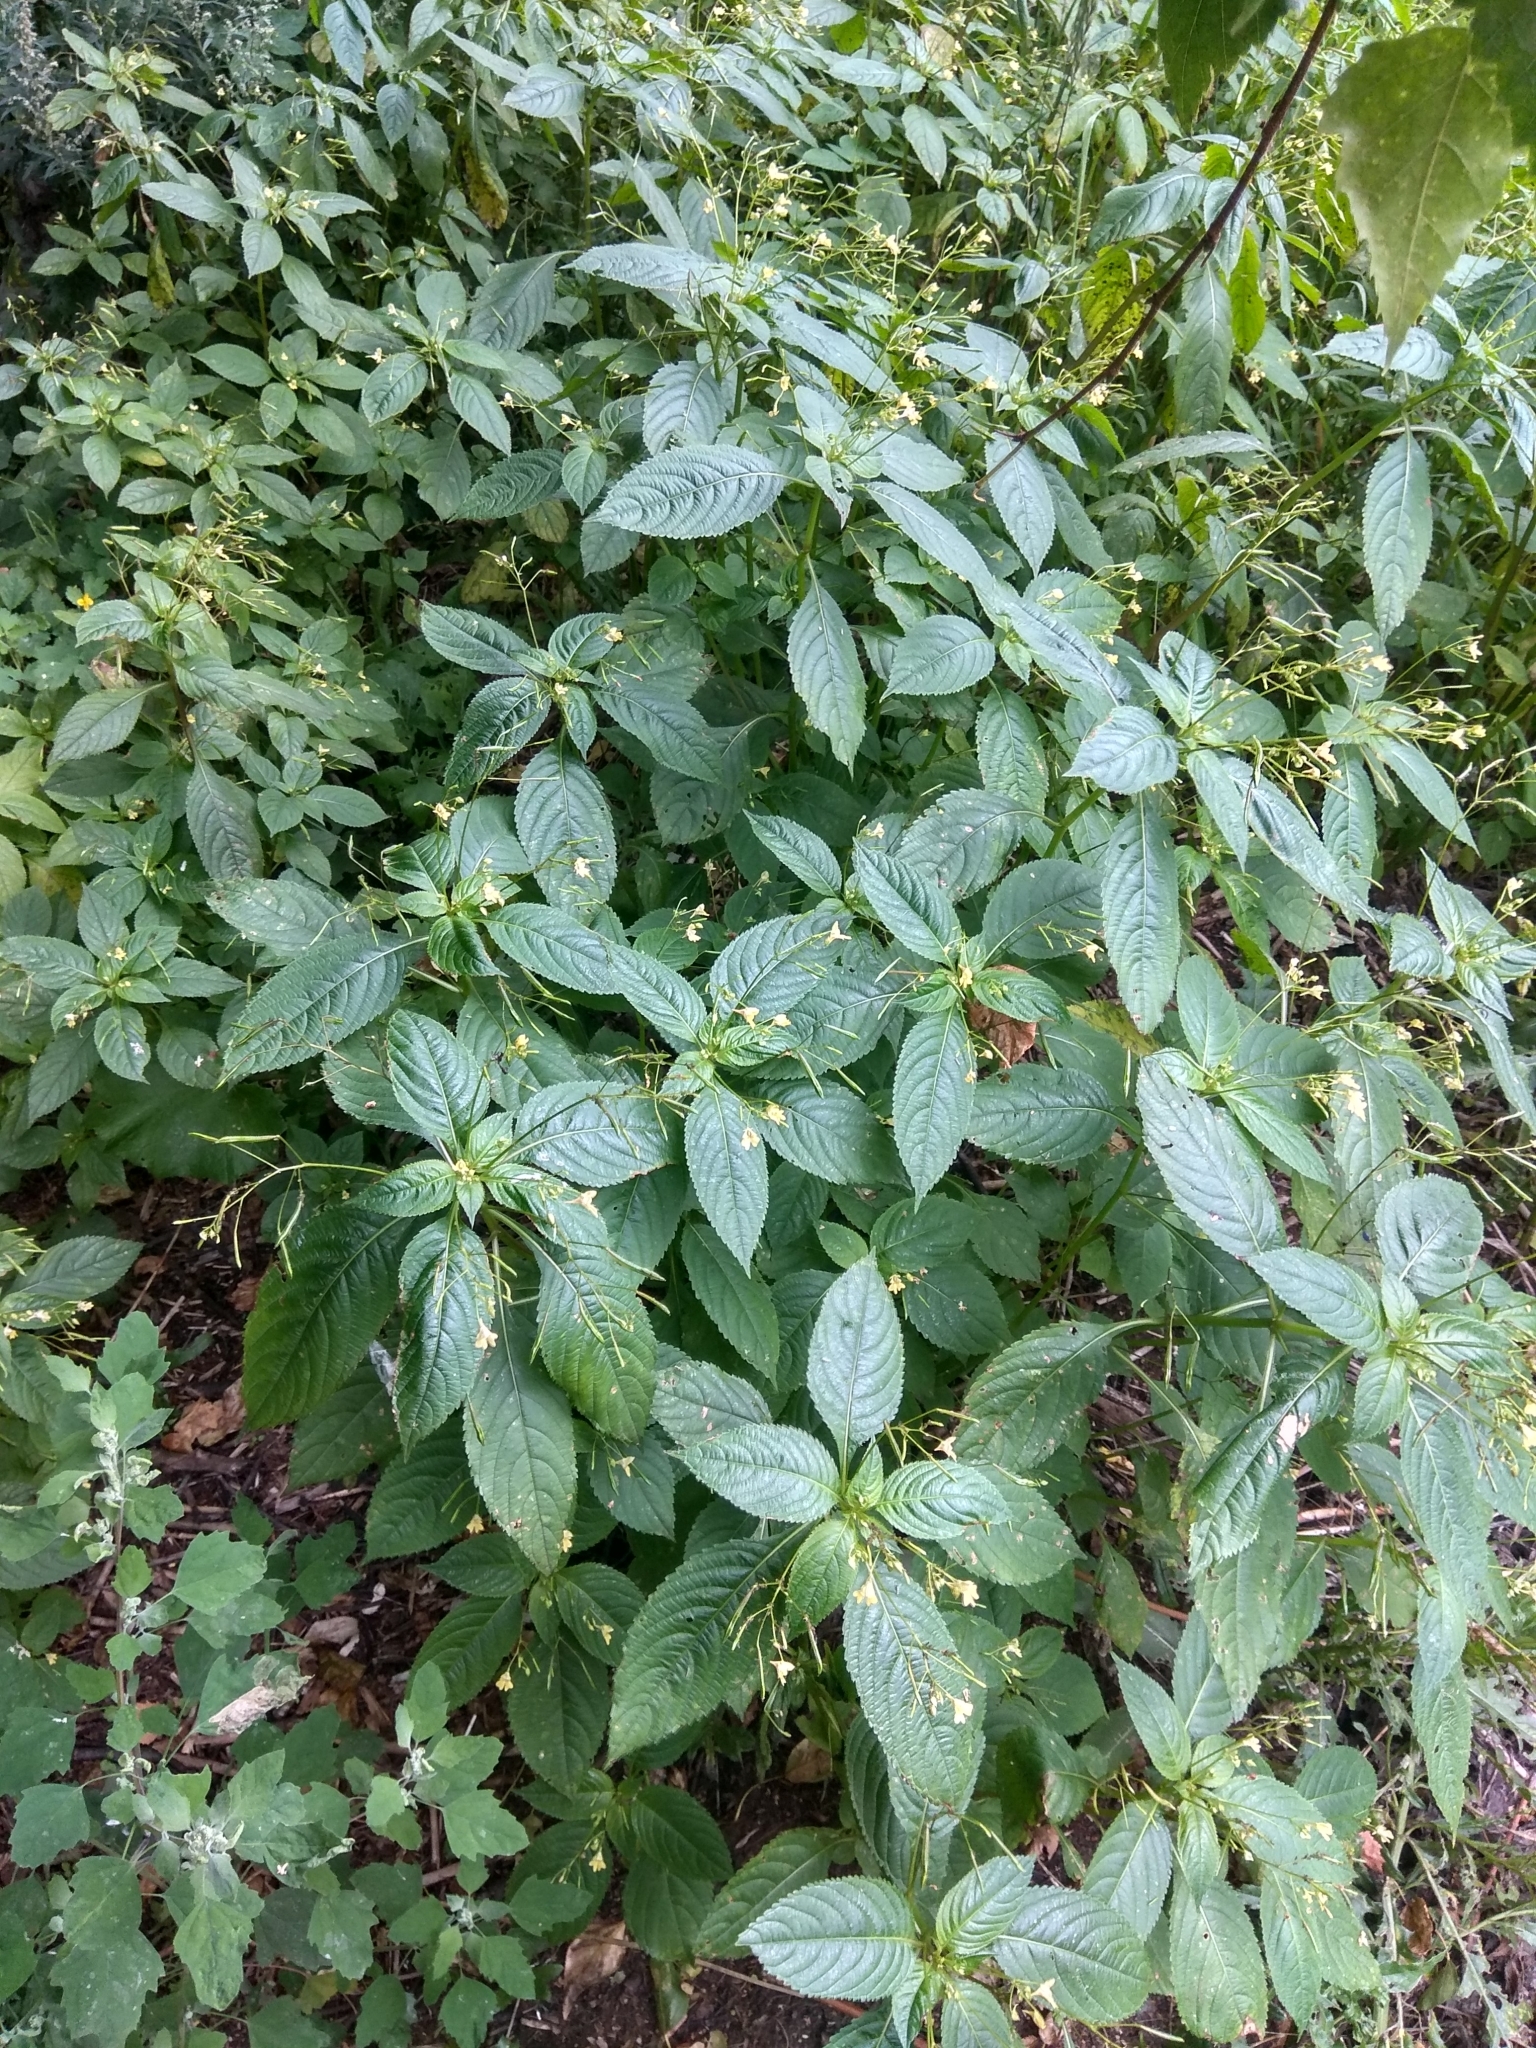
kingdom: Plantae
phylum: Tracheophyta
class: Magnoliopsida
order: Ericales
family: Balsaminaceae
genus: Impatiens
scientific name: Impatiens parviflora
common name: Small balsam
